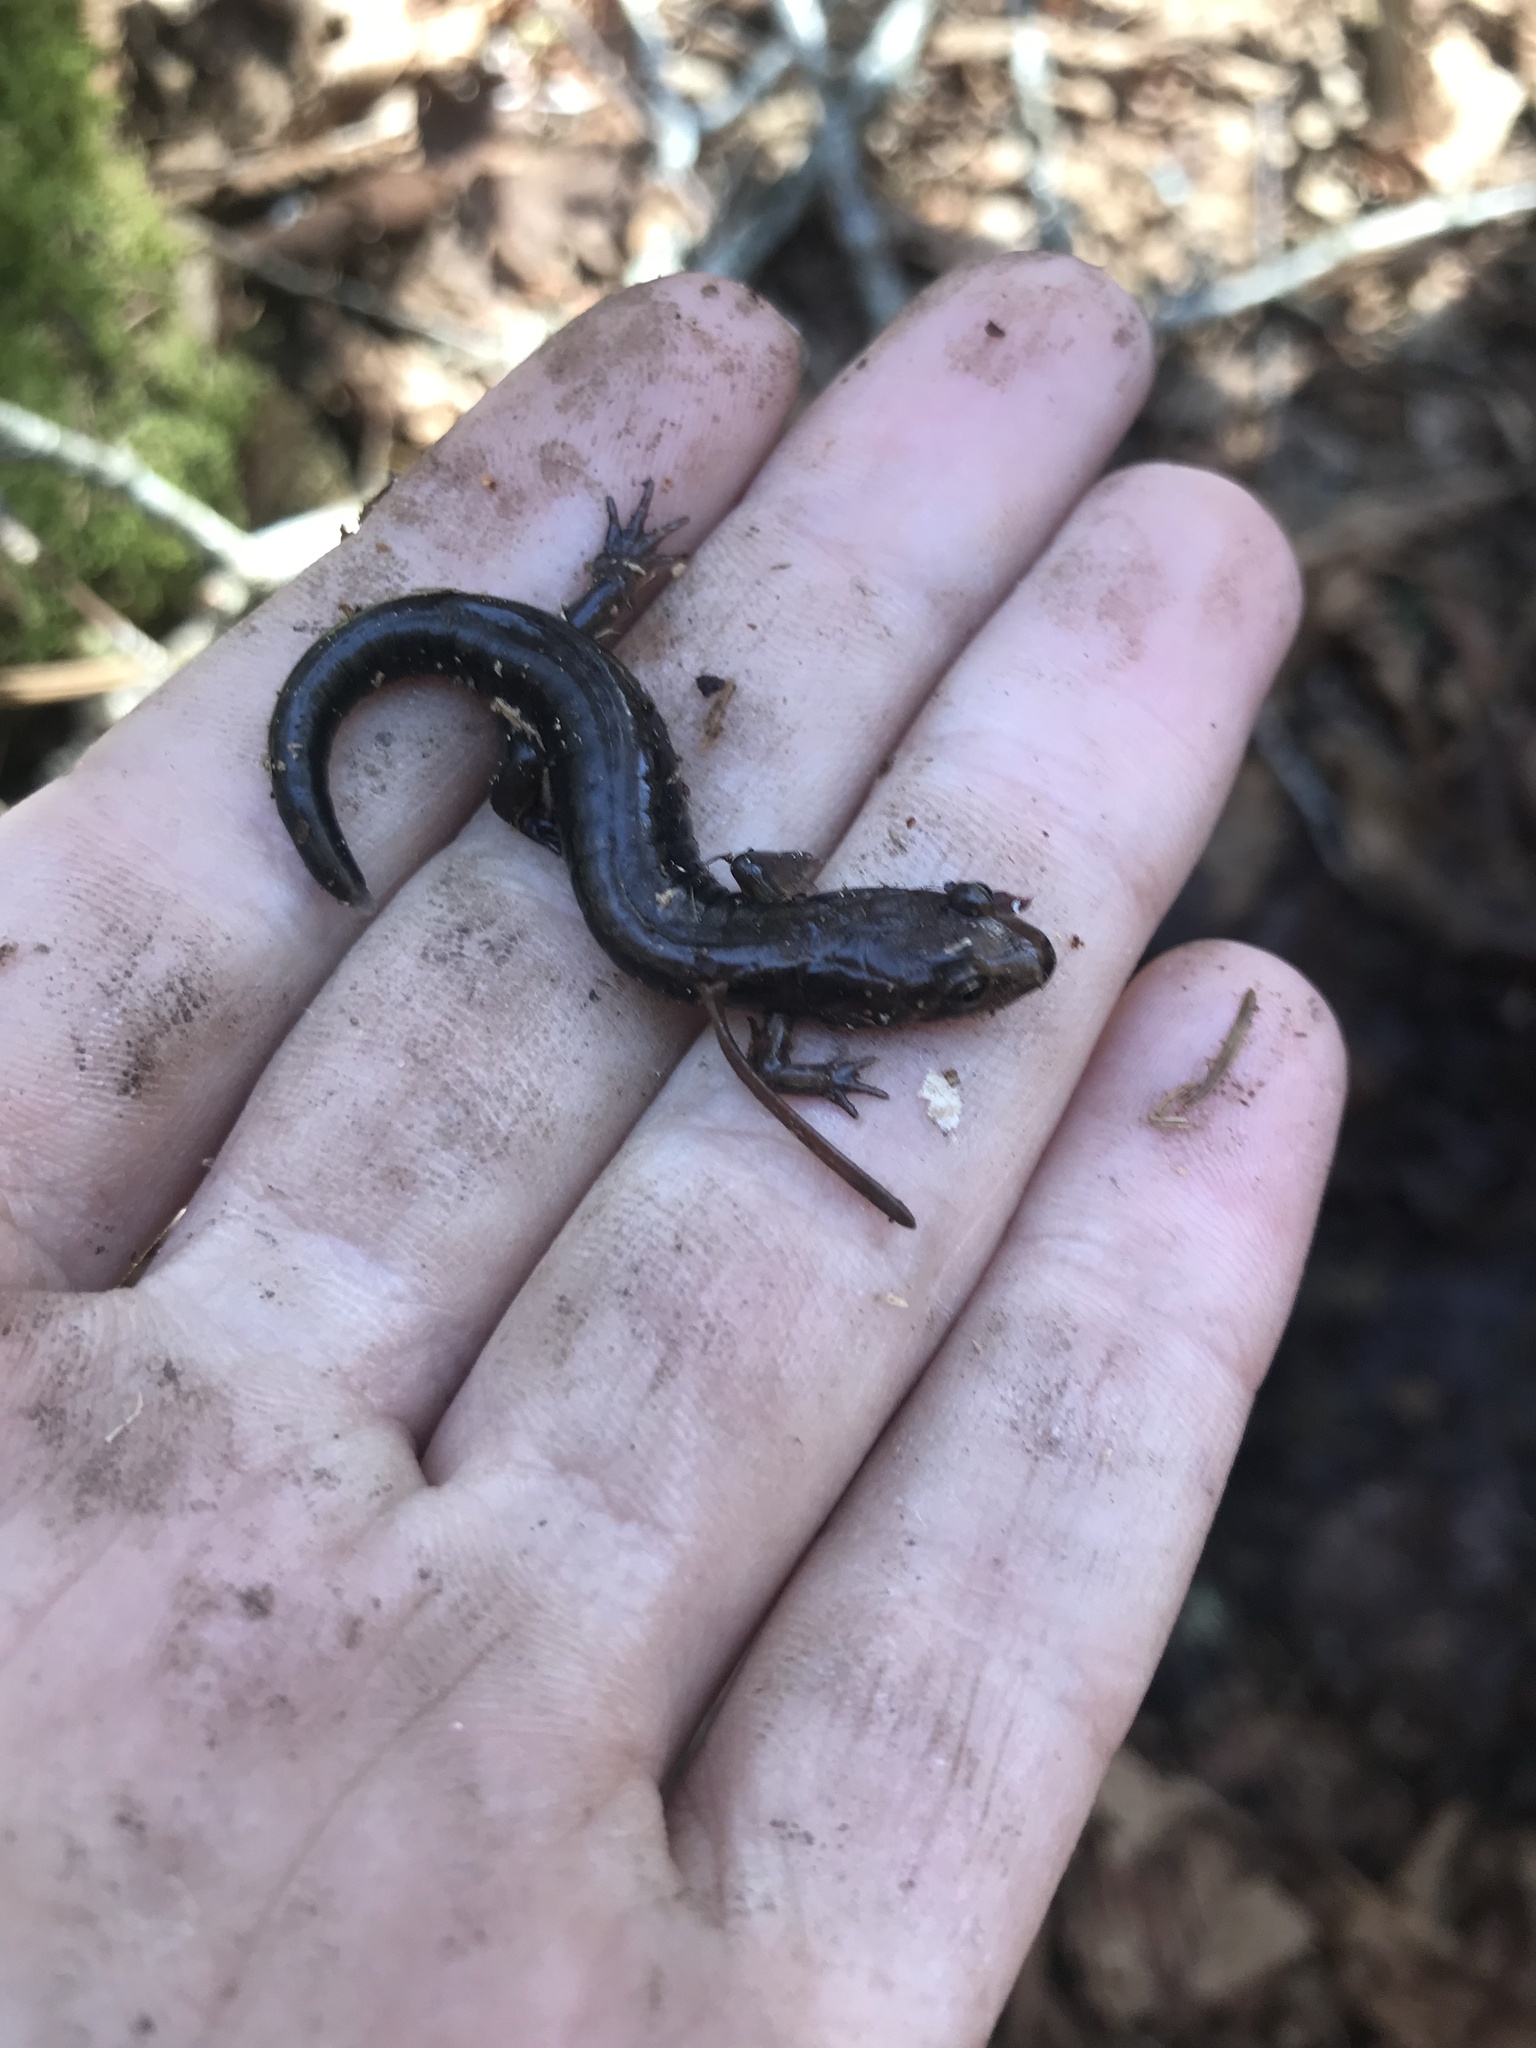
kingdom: Animalia
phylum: Chordata
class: Amphibia
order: Caudata
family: Plethodontidae
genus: Desmognathus
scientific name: Desmognathus adatsihi
